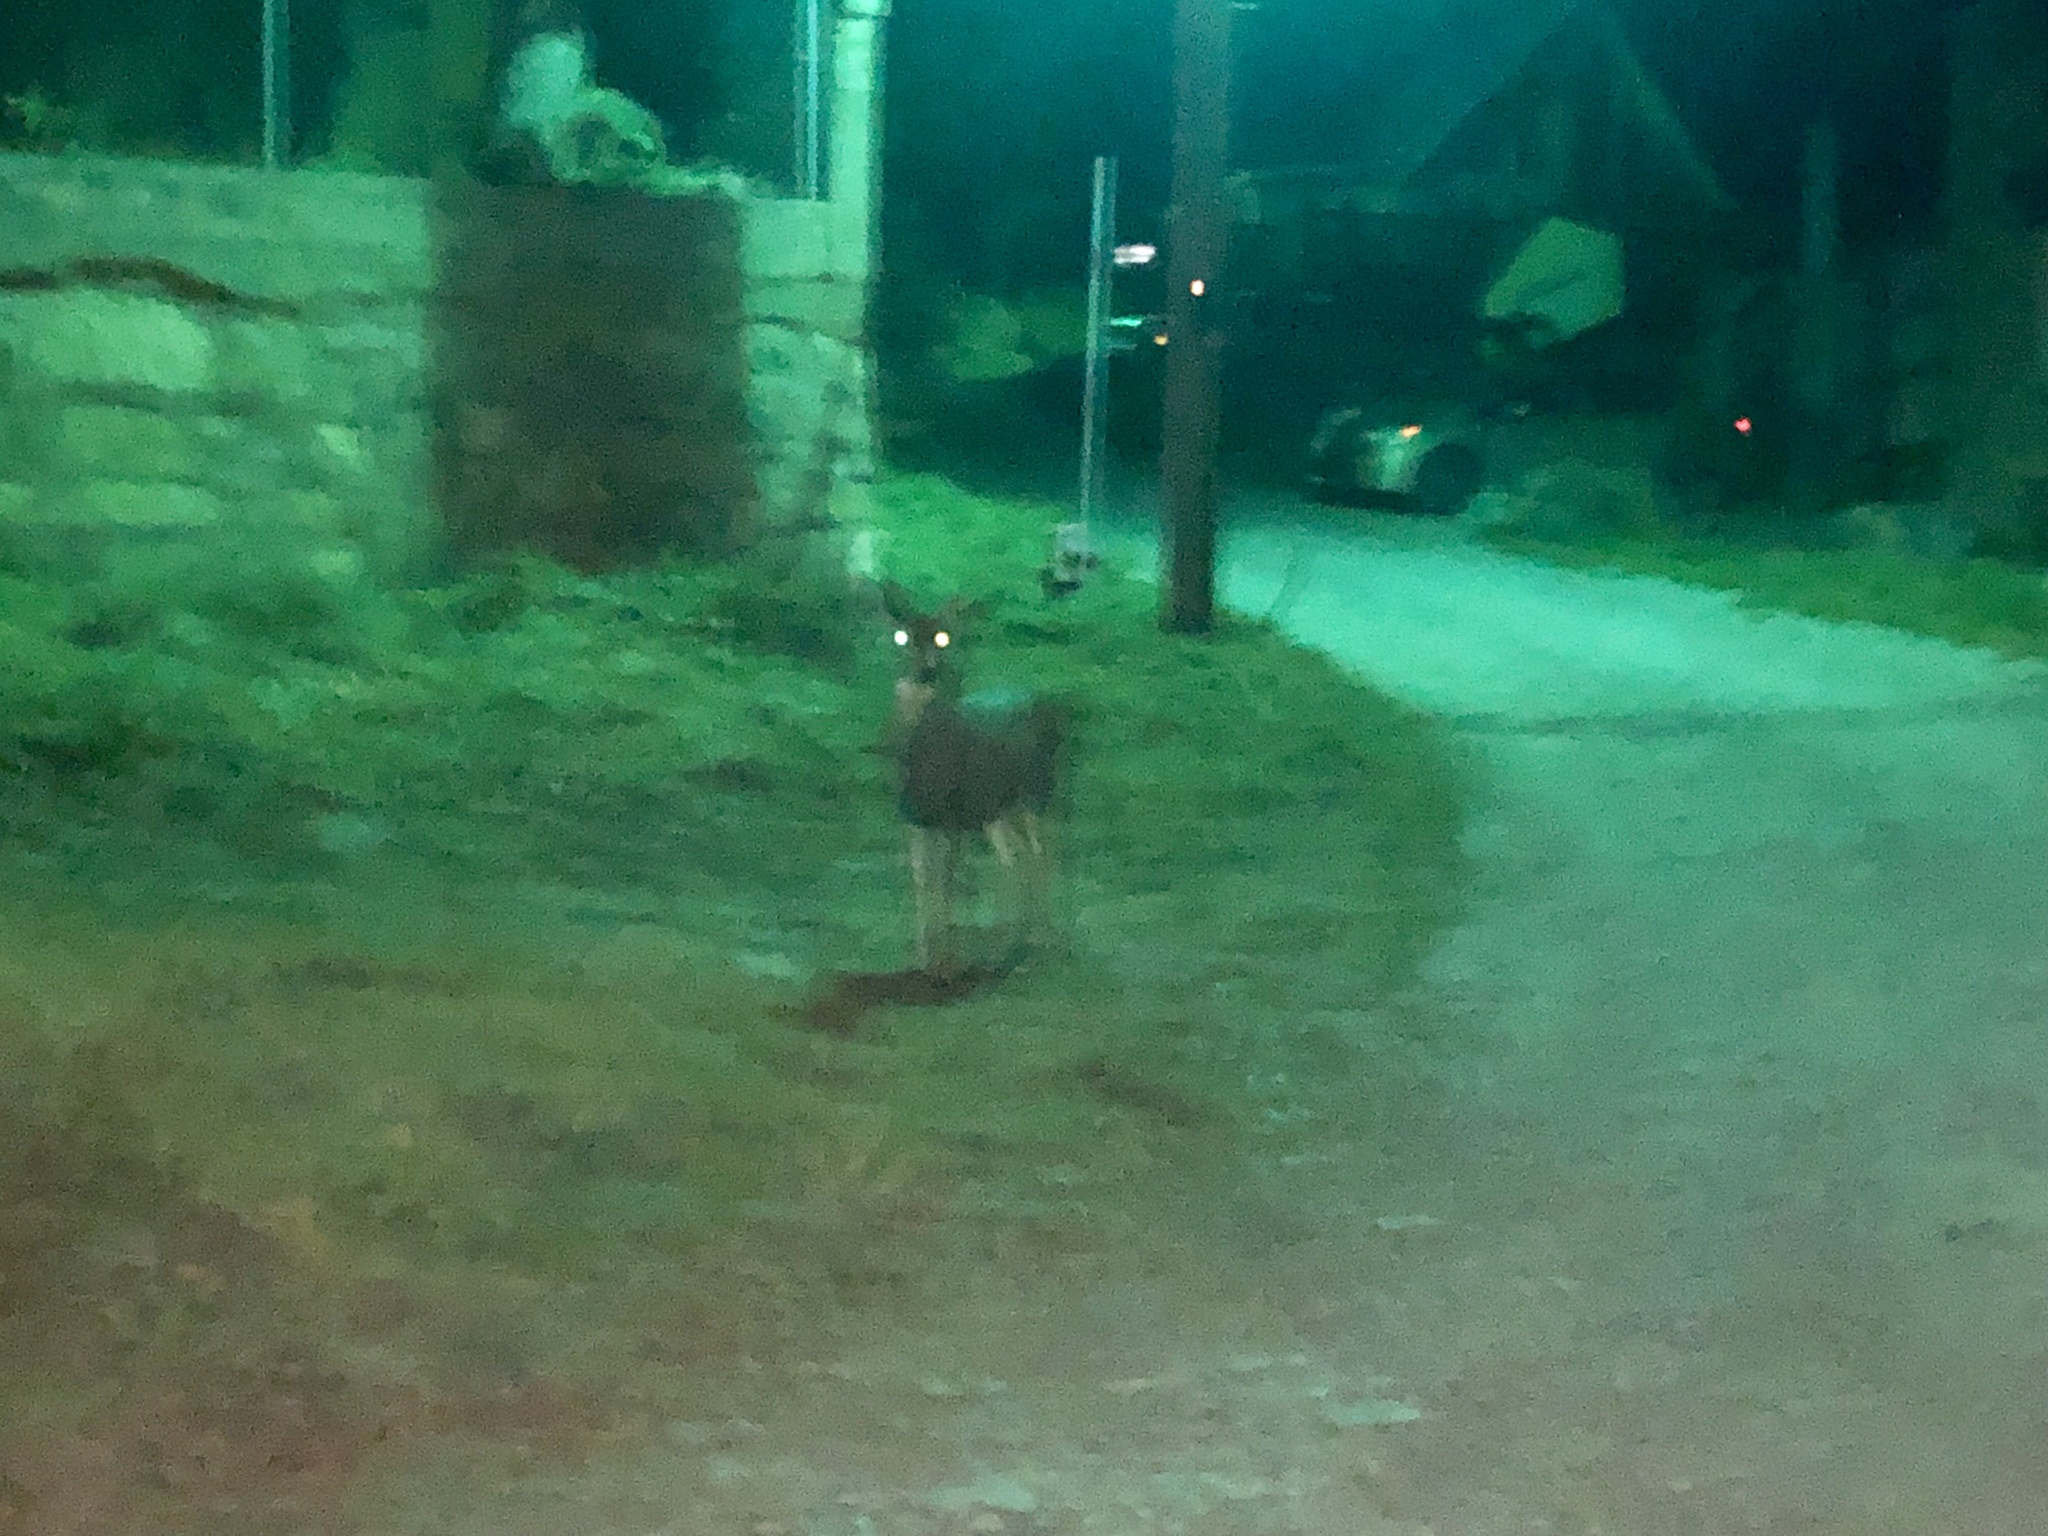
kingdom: Animalia
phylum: Chordata
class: Mammalia
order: Artiodactyla
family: Cervidae
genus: Odocoileus
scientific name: Odocoileus hemionus
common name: Mule deer
